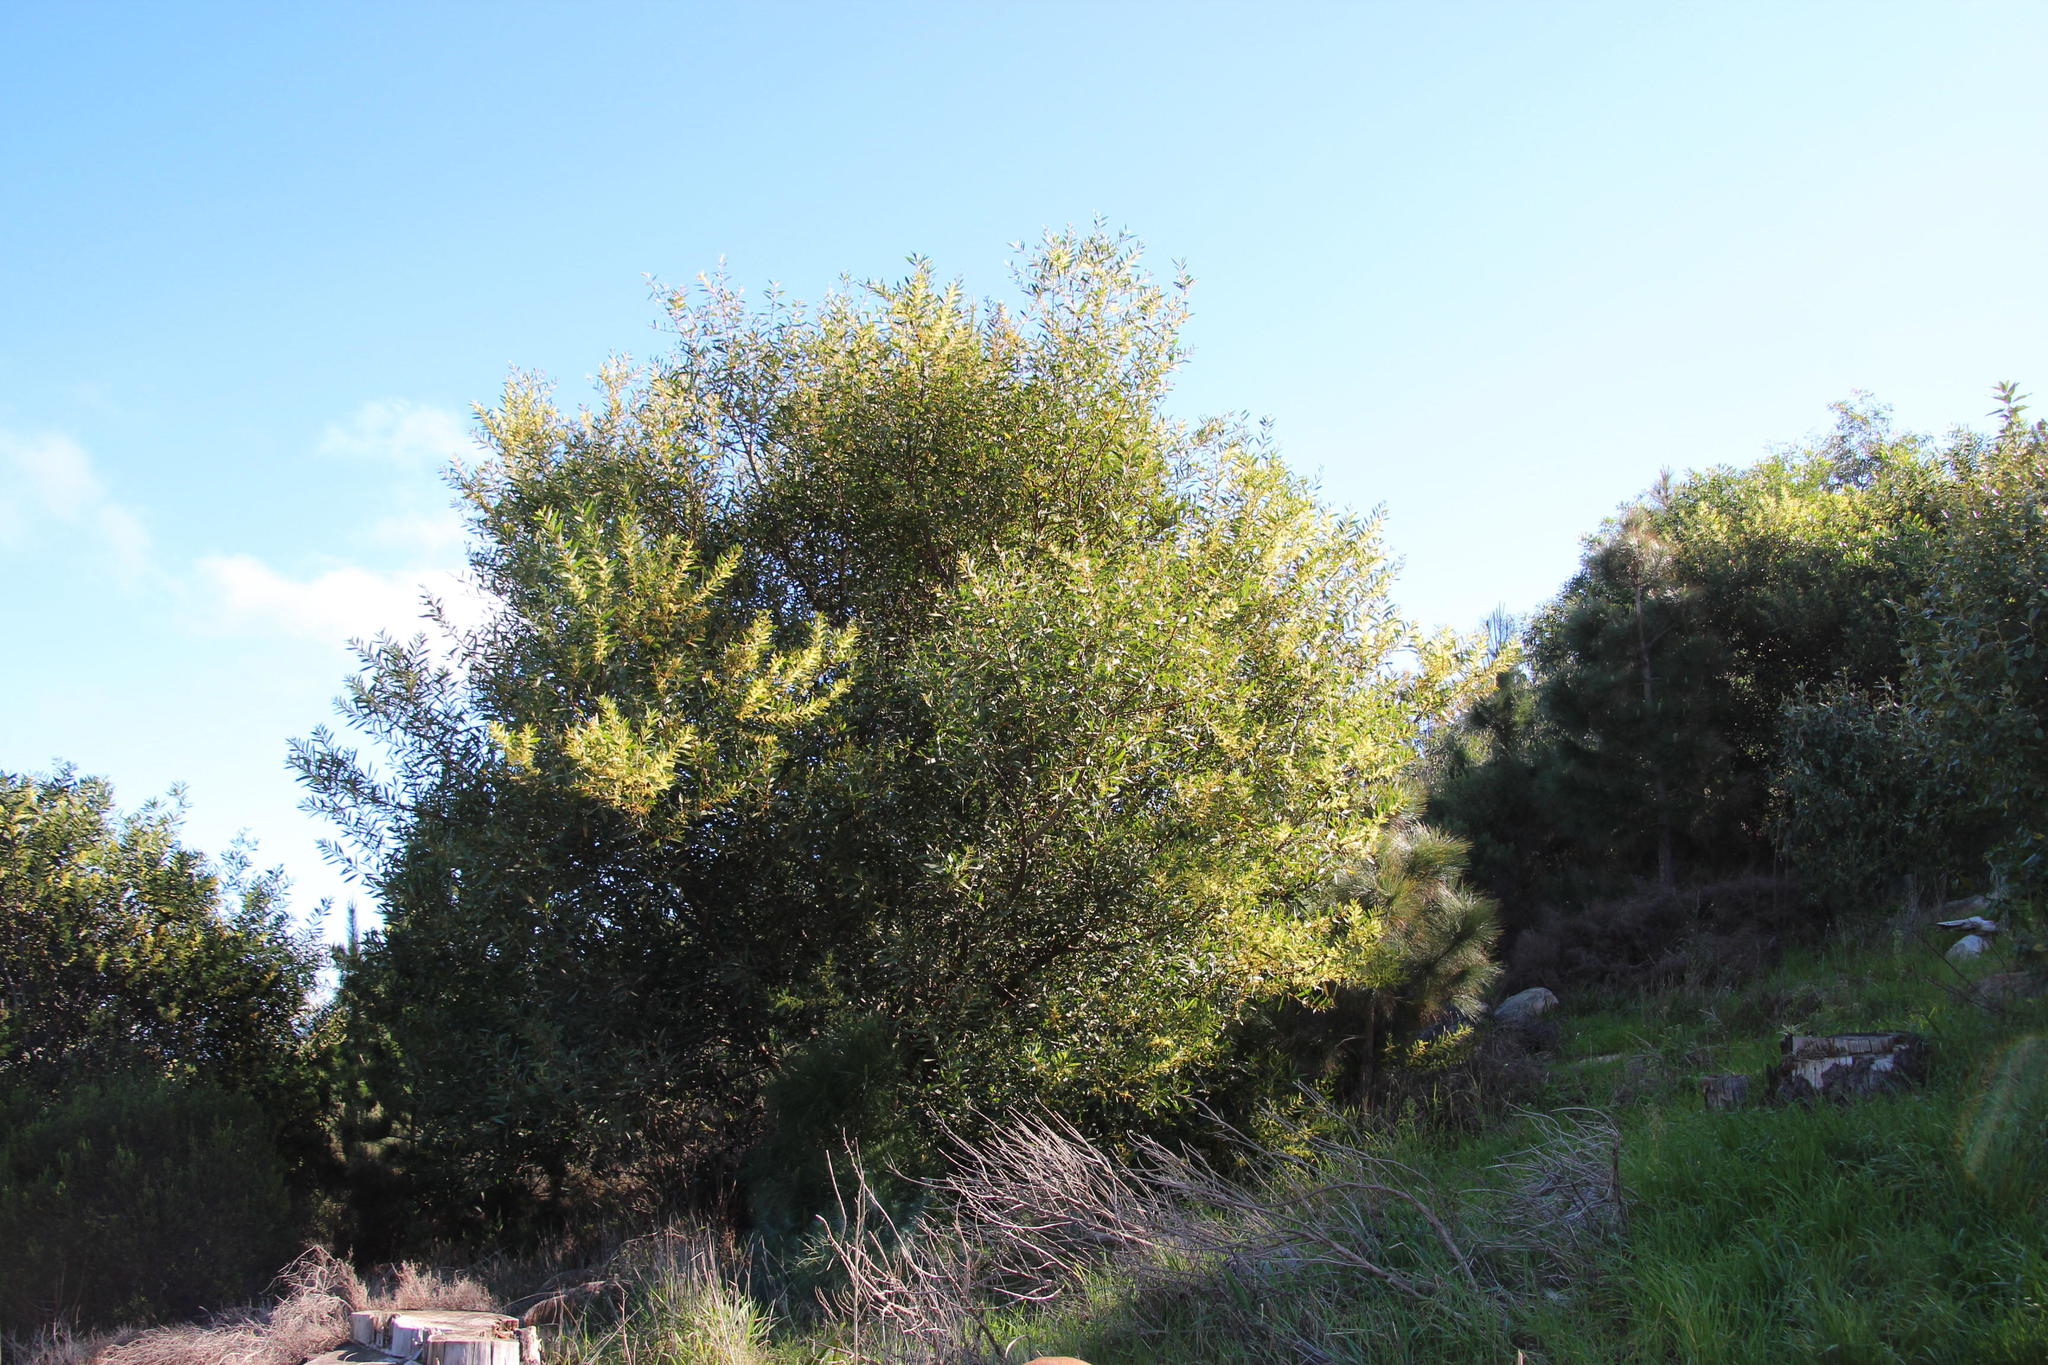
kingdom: Plantae
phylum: Tracheophyta
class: Magnoliopsida
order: Fabales
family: Fabaceae
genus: Acacia
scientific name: Acacia longifolia
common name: Sydney golden wattle
